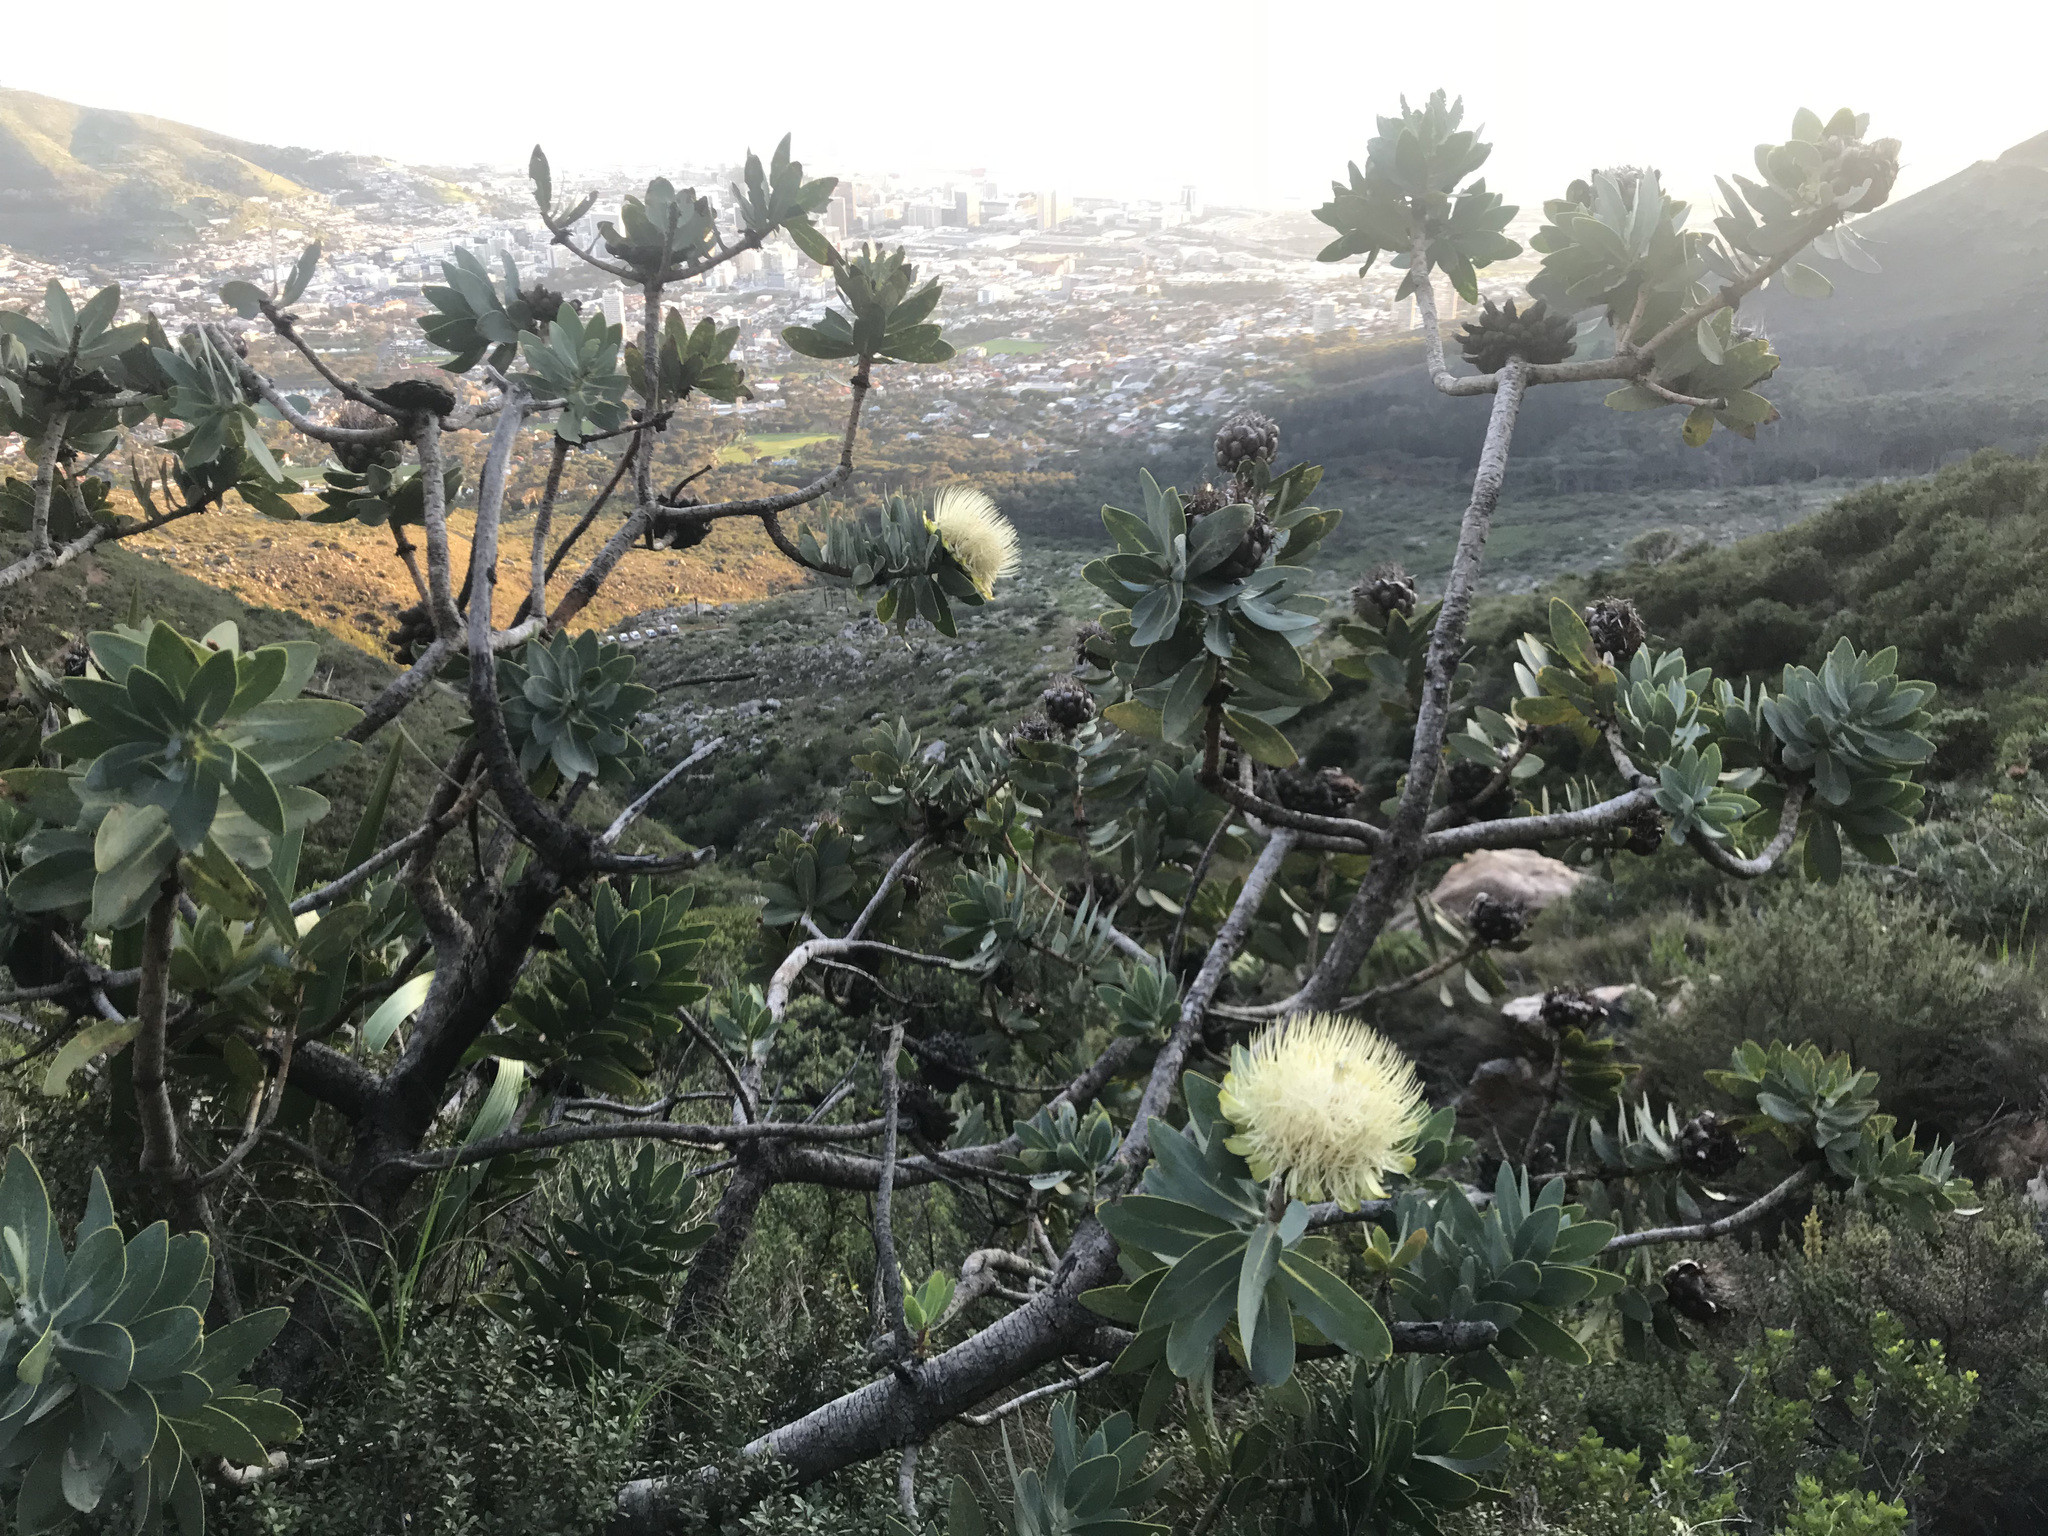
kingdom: Plantae
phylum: Tracheophyta
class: Magnoliopsida
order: Proteales
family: Proteaceae
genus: Protea
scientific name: Protea nitida
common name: Tree protea
